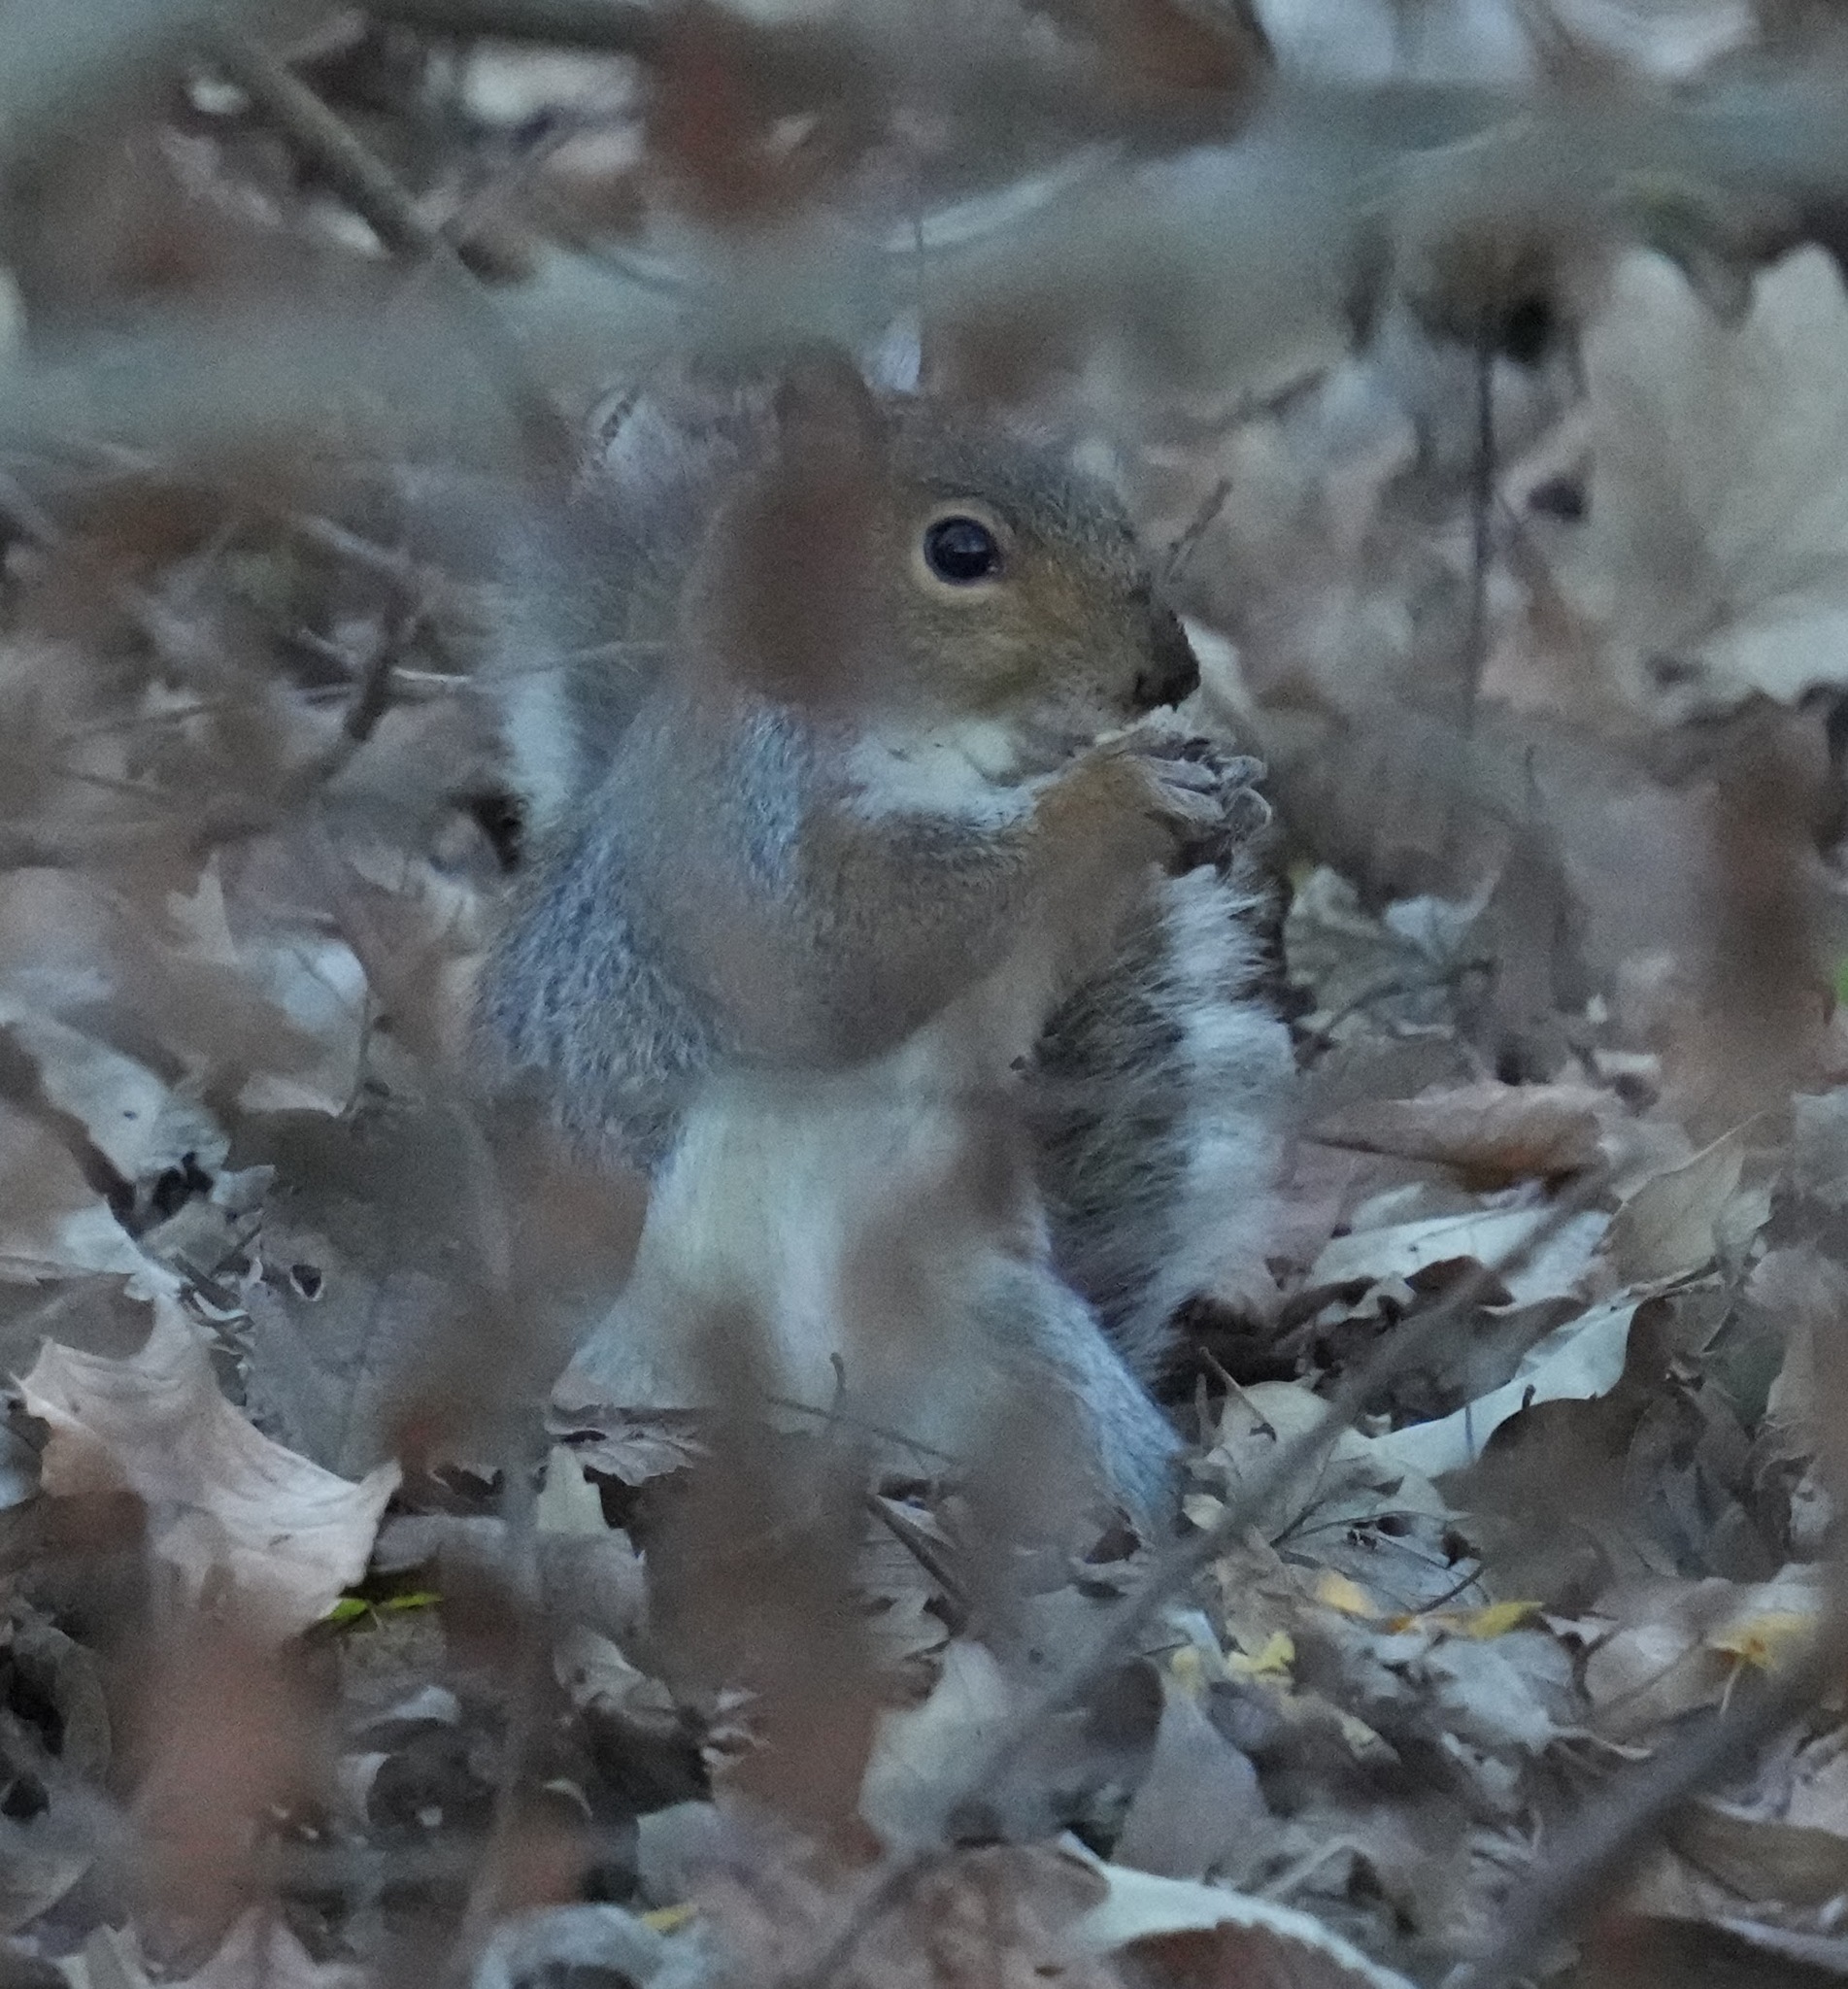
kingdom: Animalia
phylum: Chordata
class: Mammalia
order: Rodentia
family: Sciuridae
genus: Sciurus
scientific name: Sciurus carolinensis
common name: Eastern gray squirrel
